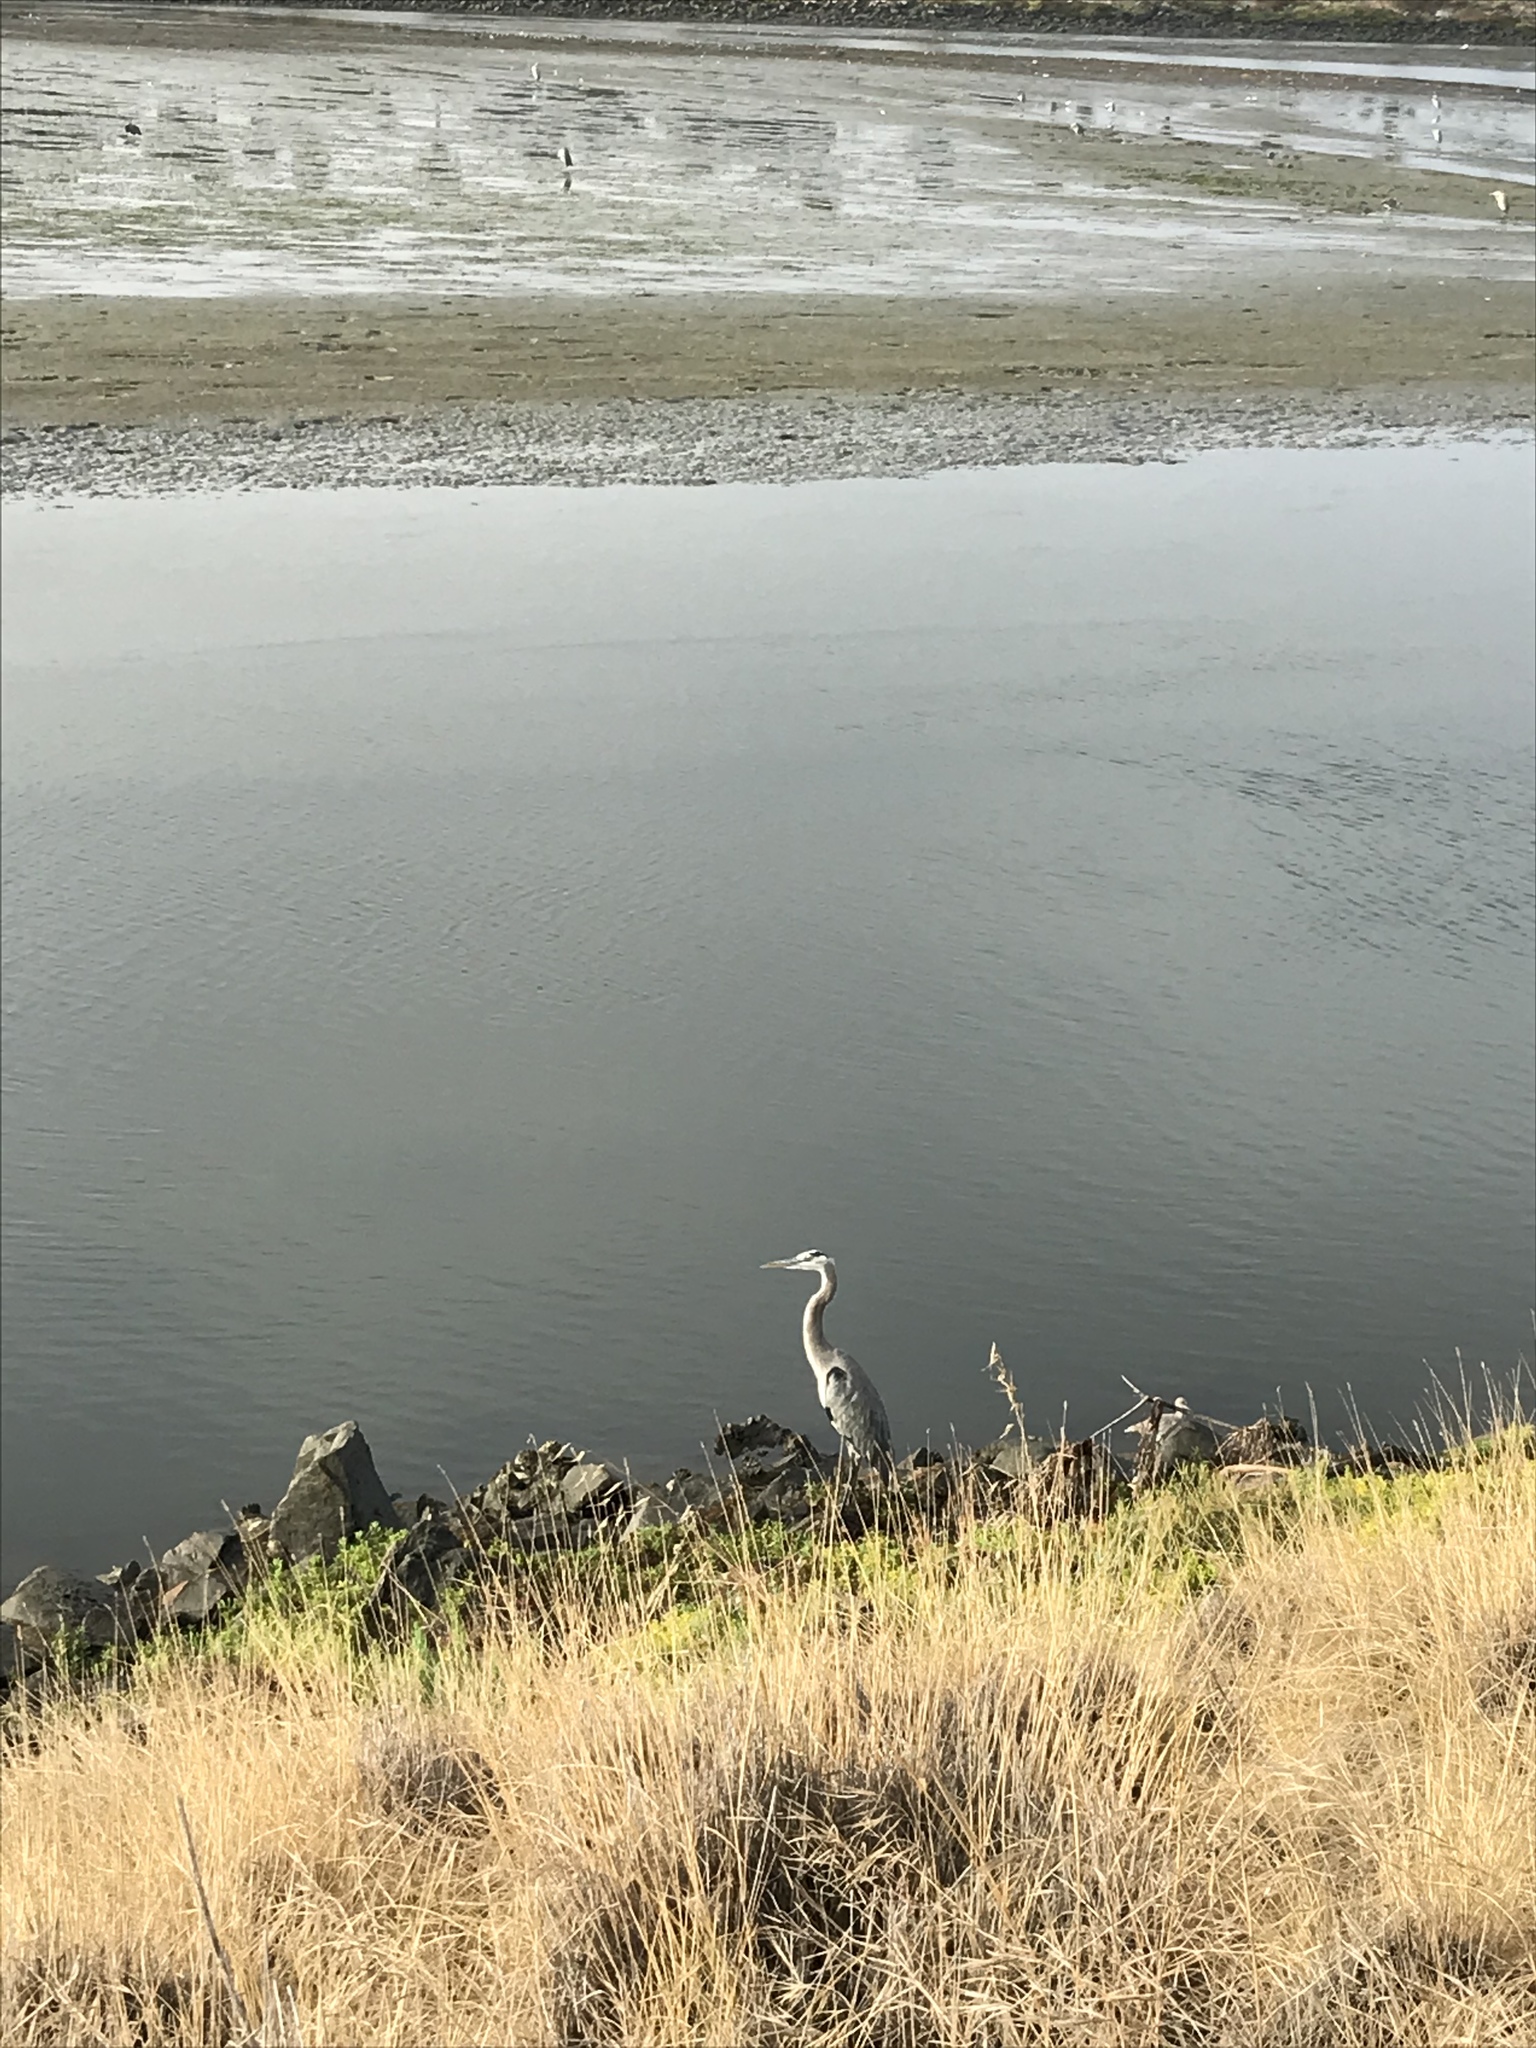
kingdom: Animalia
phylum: Chordata
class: Aves
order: Pelecaniformes
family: Ardeidae
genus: Ardea
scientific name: Ardea herodias
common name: Great blue heron
